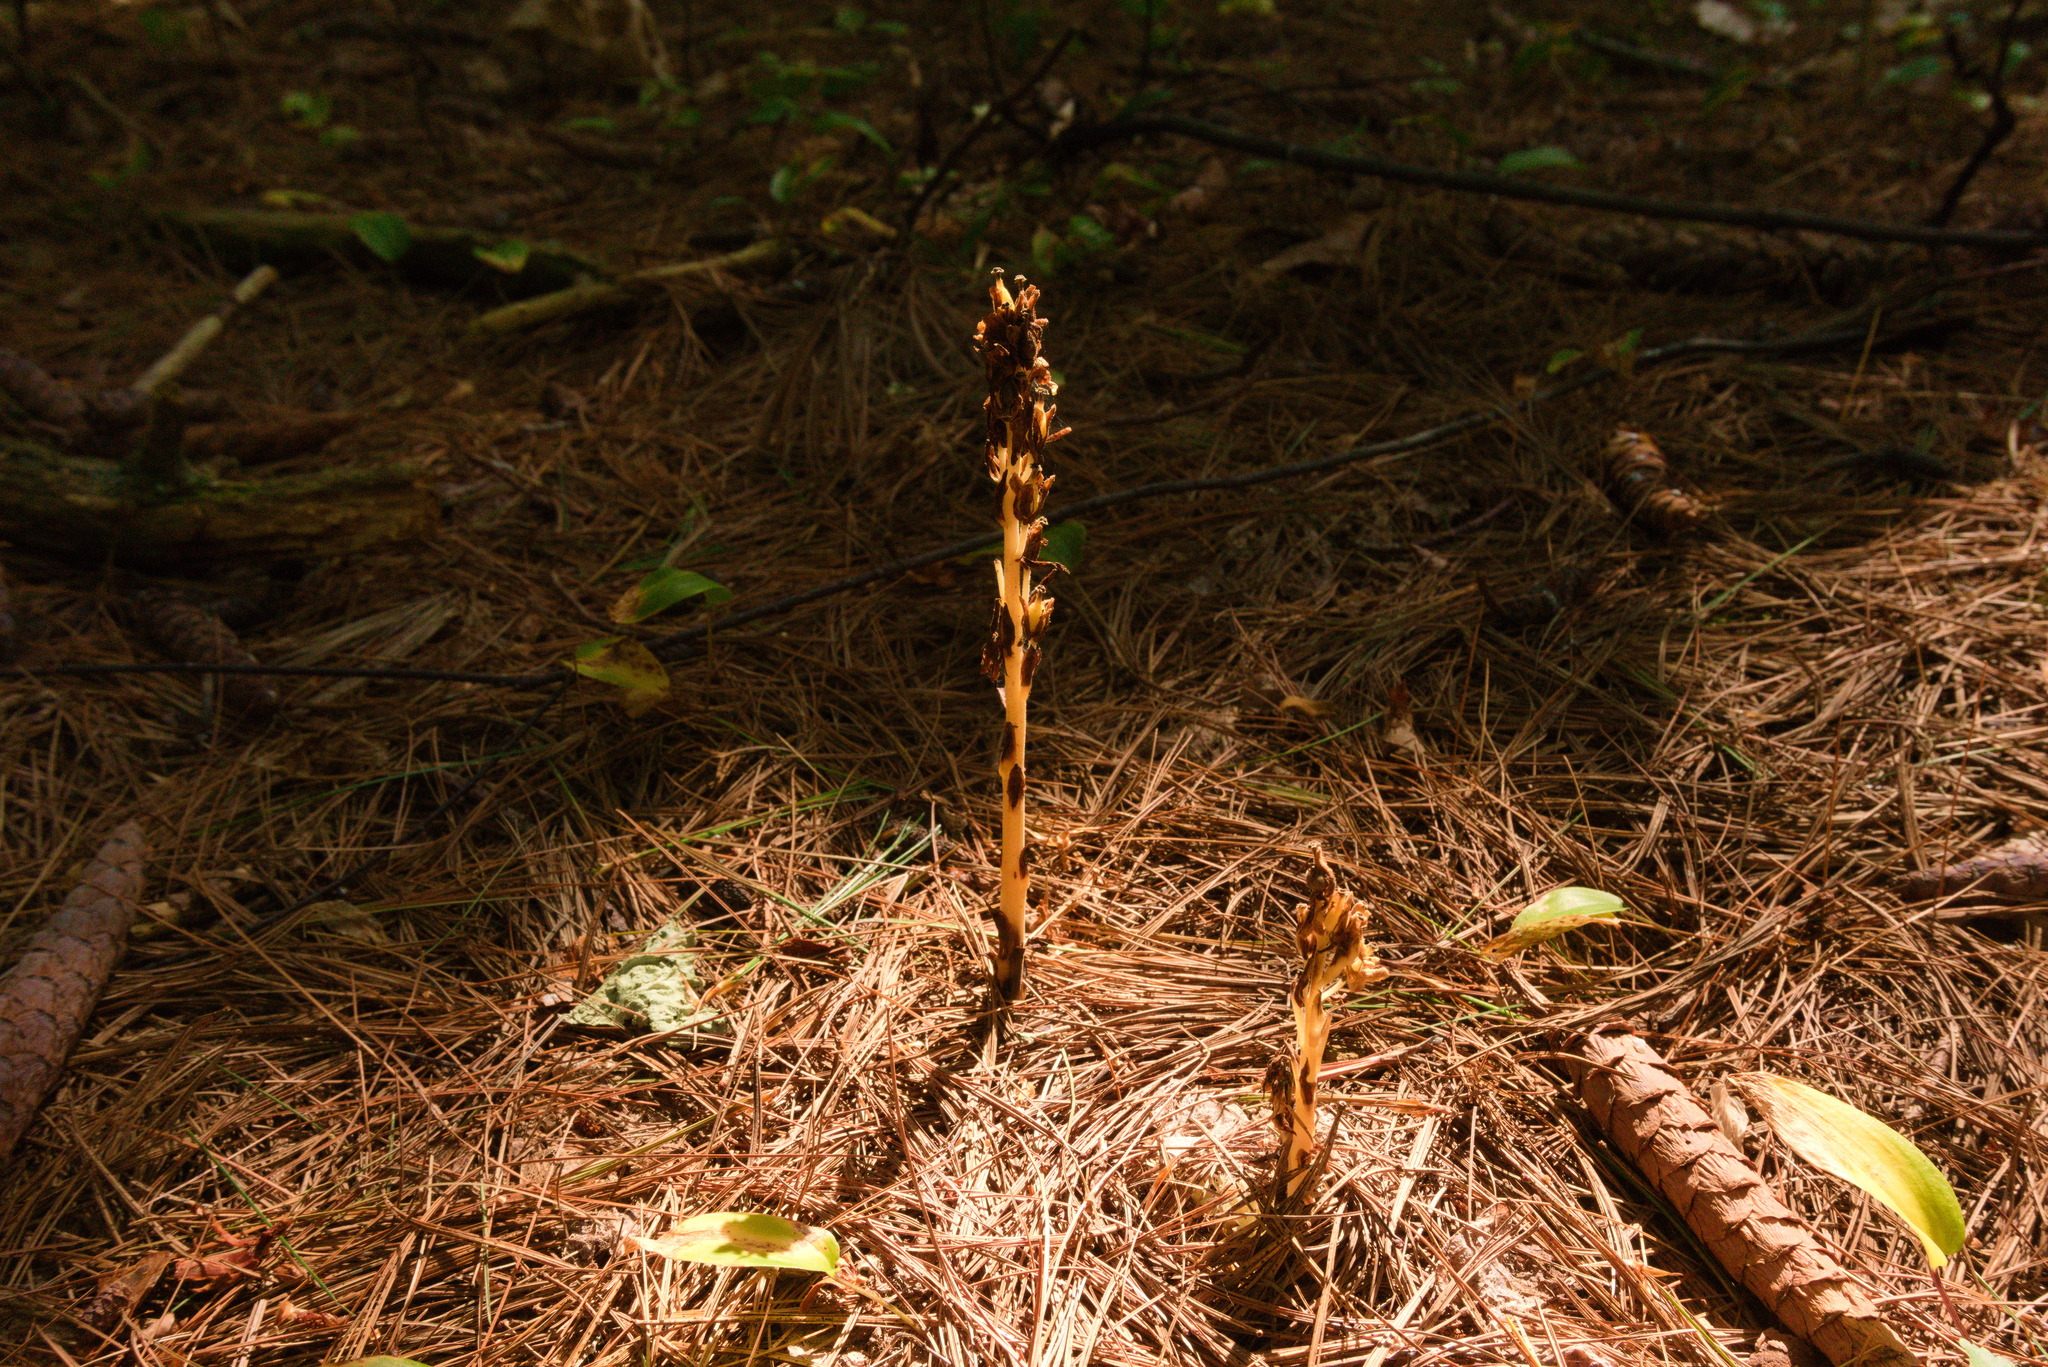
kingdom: Plantae
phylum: Tracheophyta
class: Magnoliopsida
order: Ericales
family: Ericaceae
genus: Hypopitys
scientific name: Hypopitys monotropa
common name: Yellow bird's-nest
